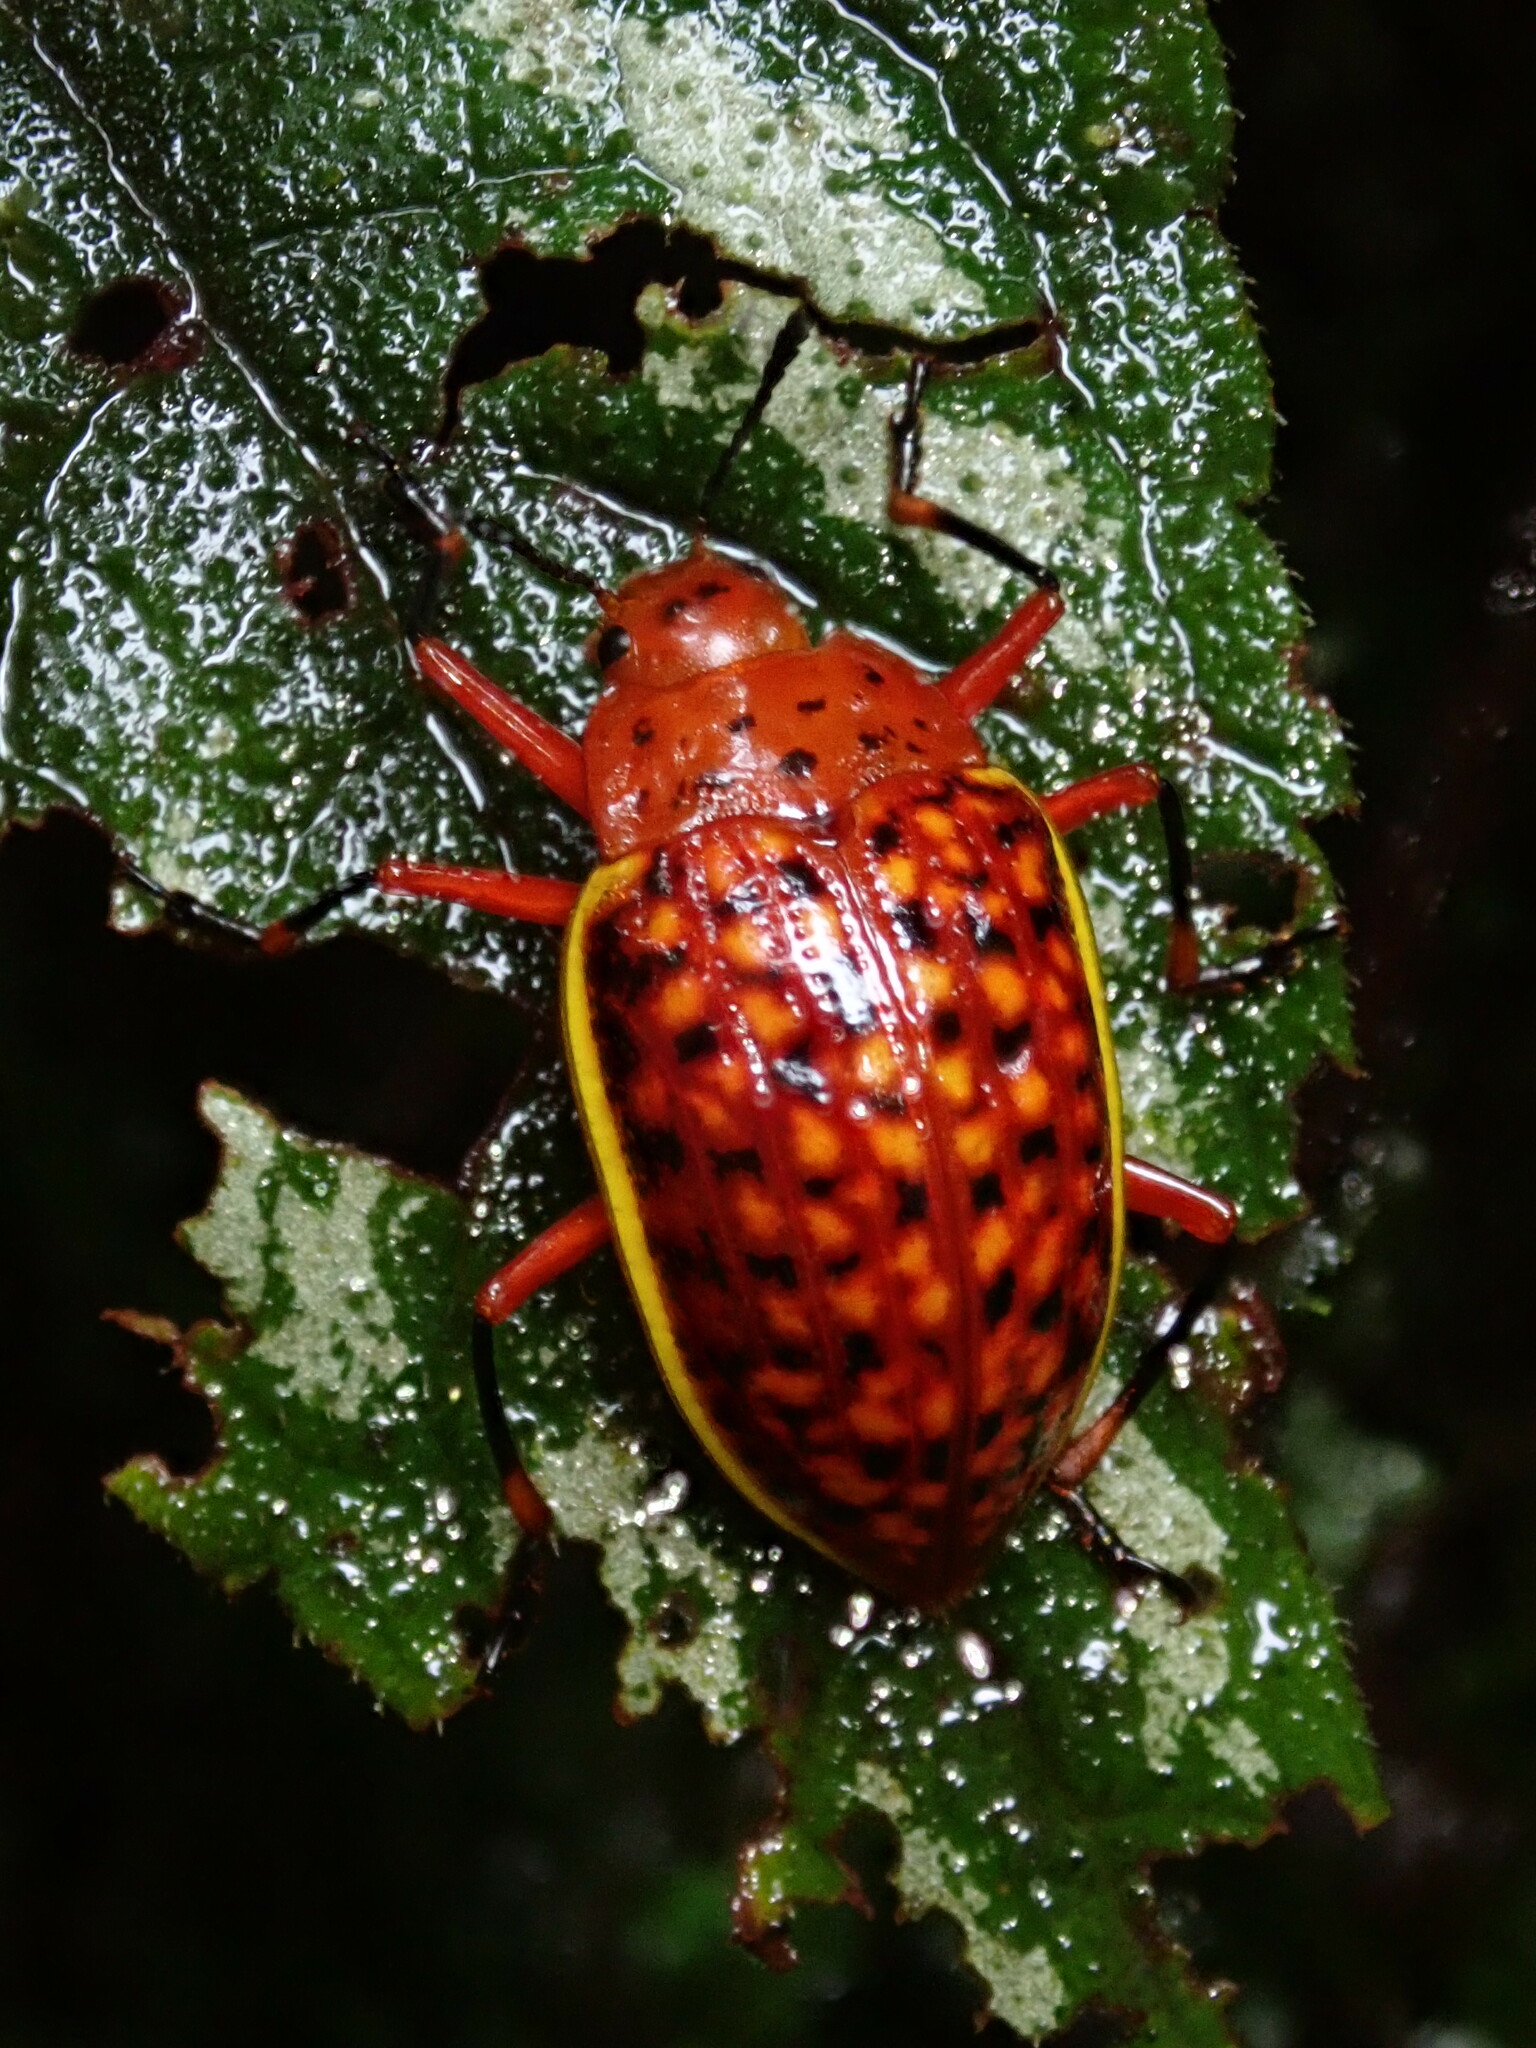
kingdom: Animalia
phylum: Arthropoda
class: Insecta
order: Coleoptera
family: Erotylidae
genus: Erotylina
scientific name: Erotylina
